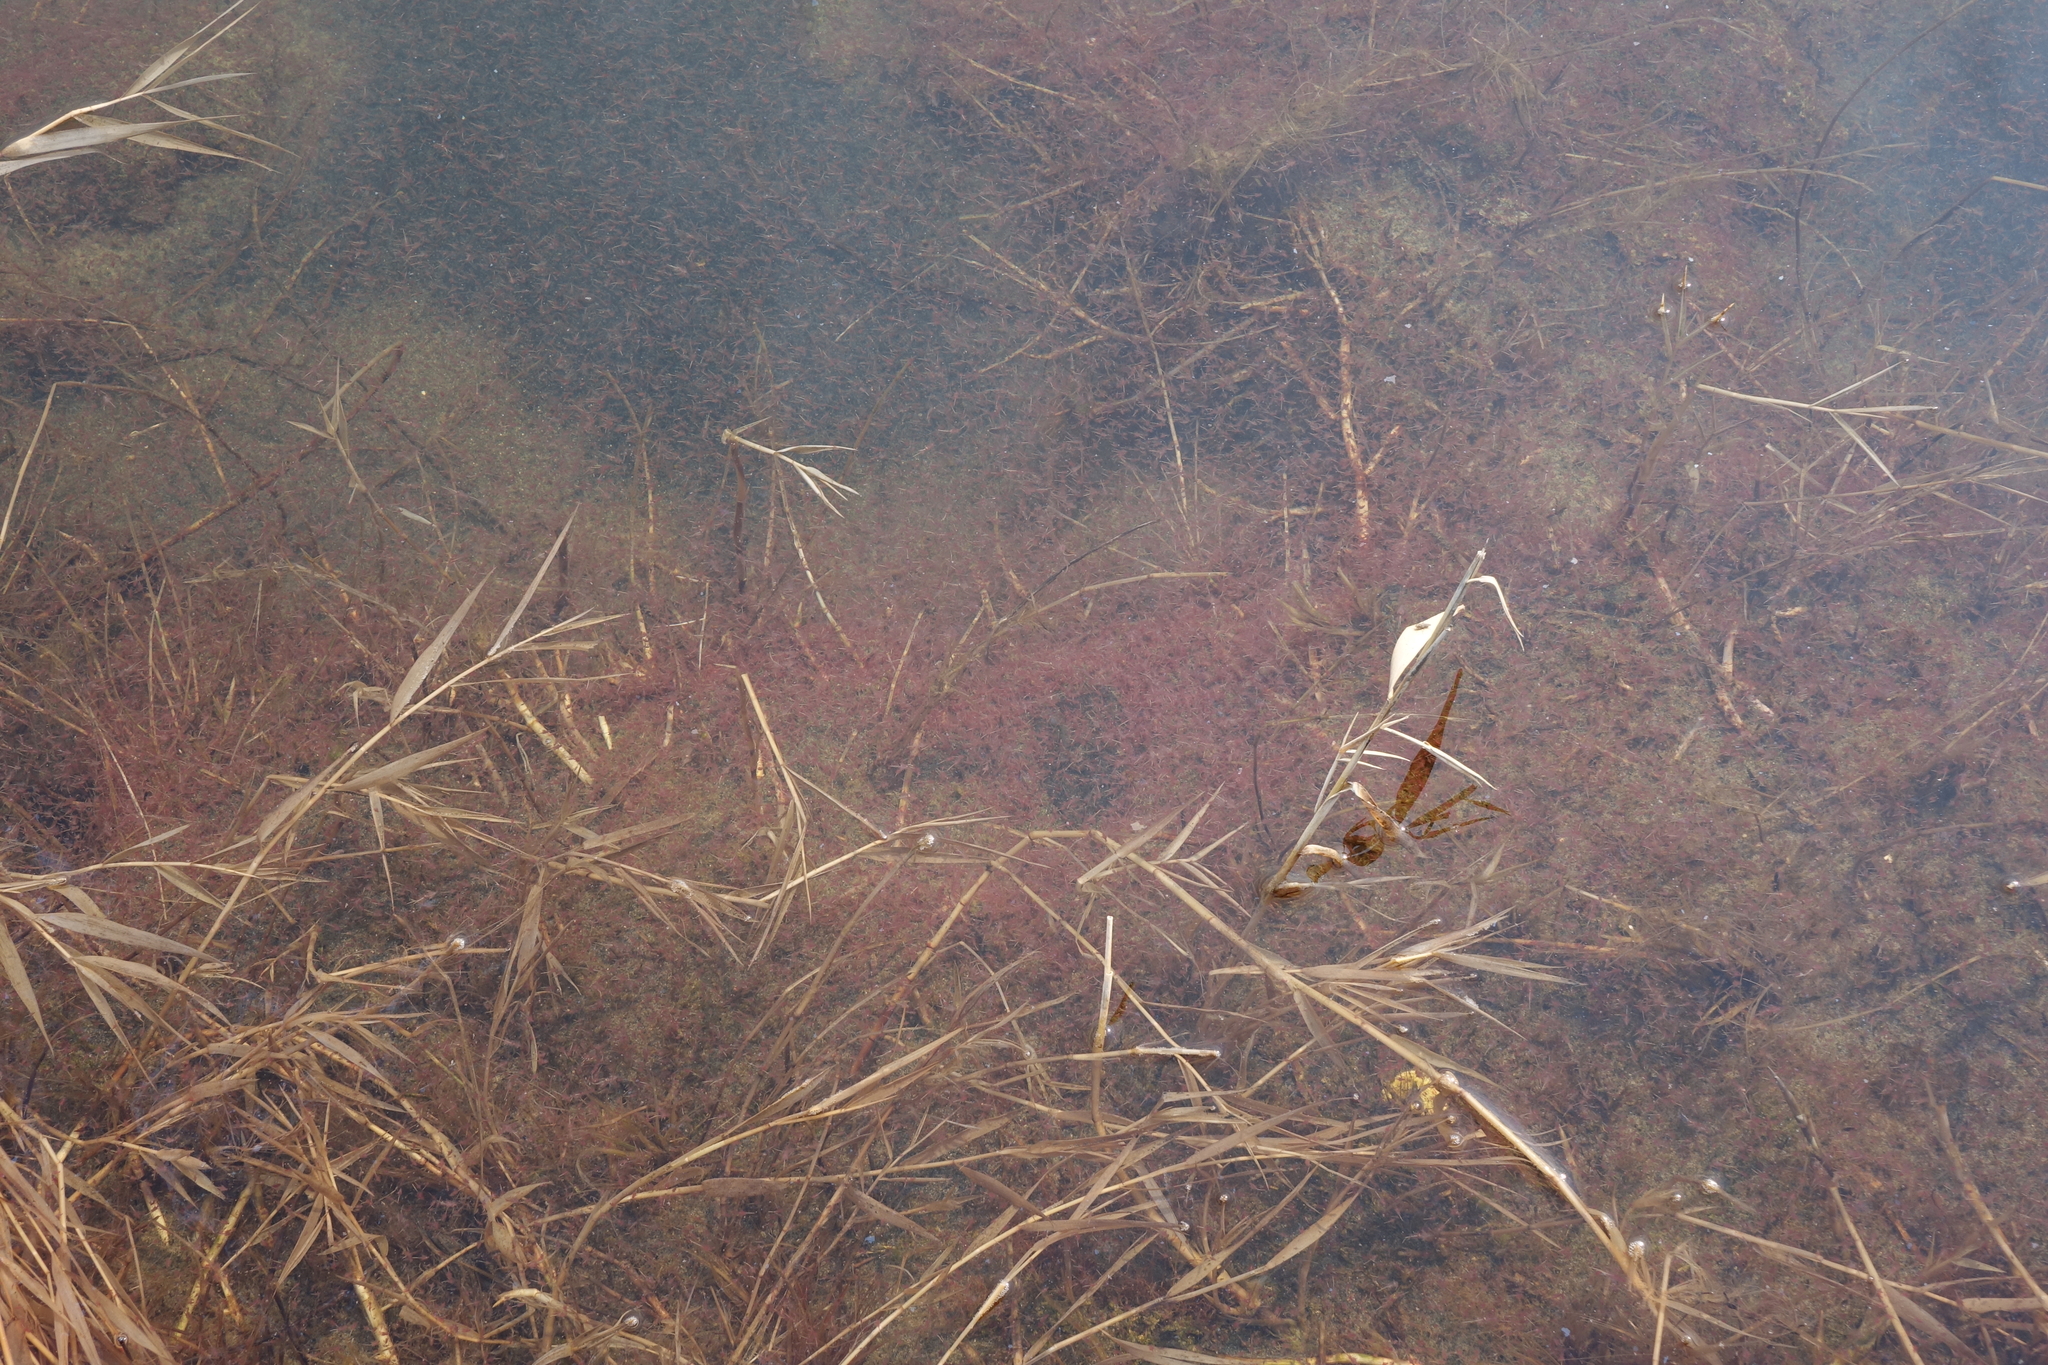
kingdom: Animalia
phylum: Arthropoda
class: Branchiopoda
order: Anostraca
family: Artemiidae
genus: Artemia
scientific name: Artemia salina
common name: Brine shrimp
